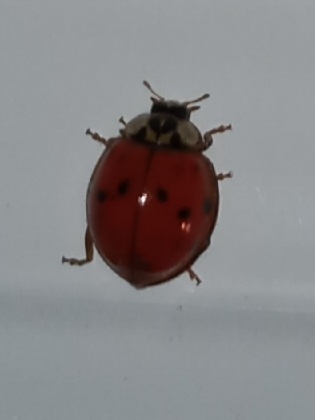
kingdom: Animalia
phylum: Arthropoda
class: Insecta
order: Coleoptera
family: Coccinellidae
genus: Harmonia
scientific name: Harmonia axyridis
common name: Harlequin ladybird
